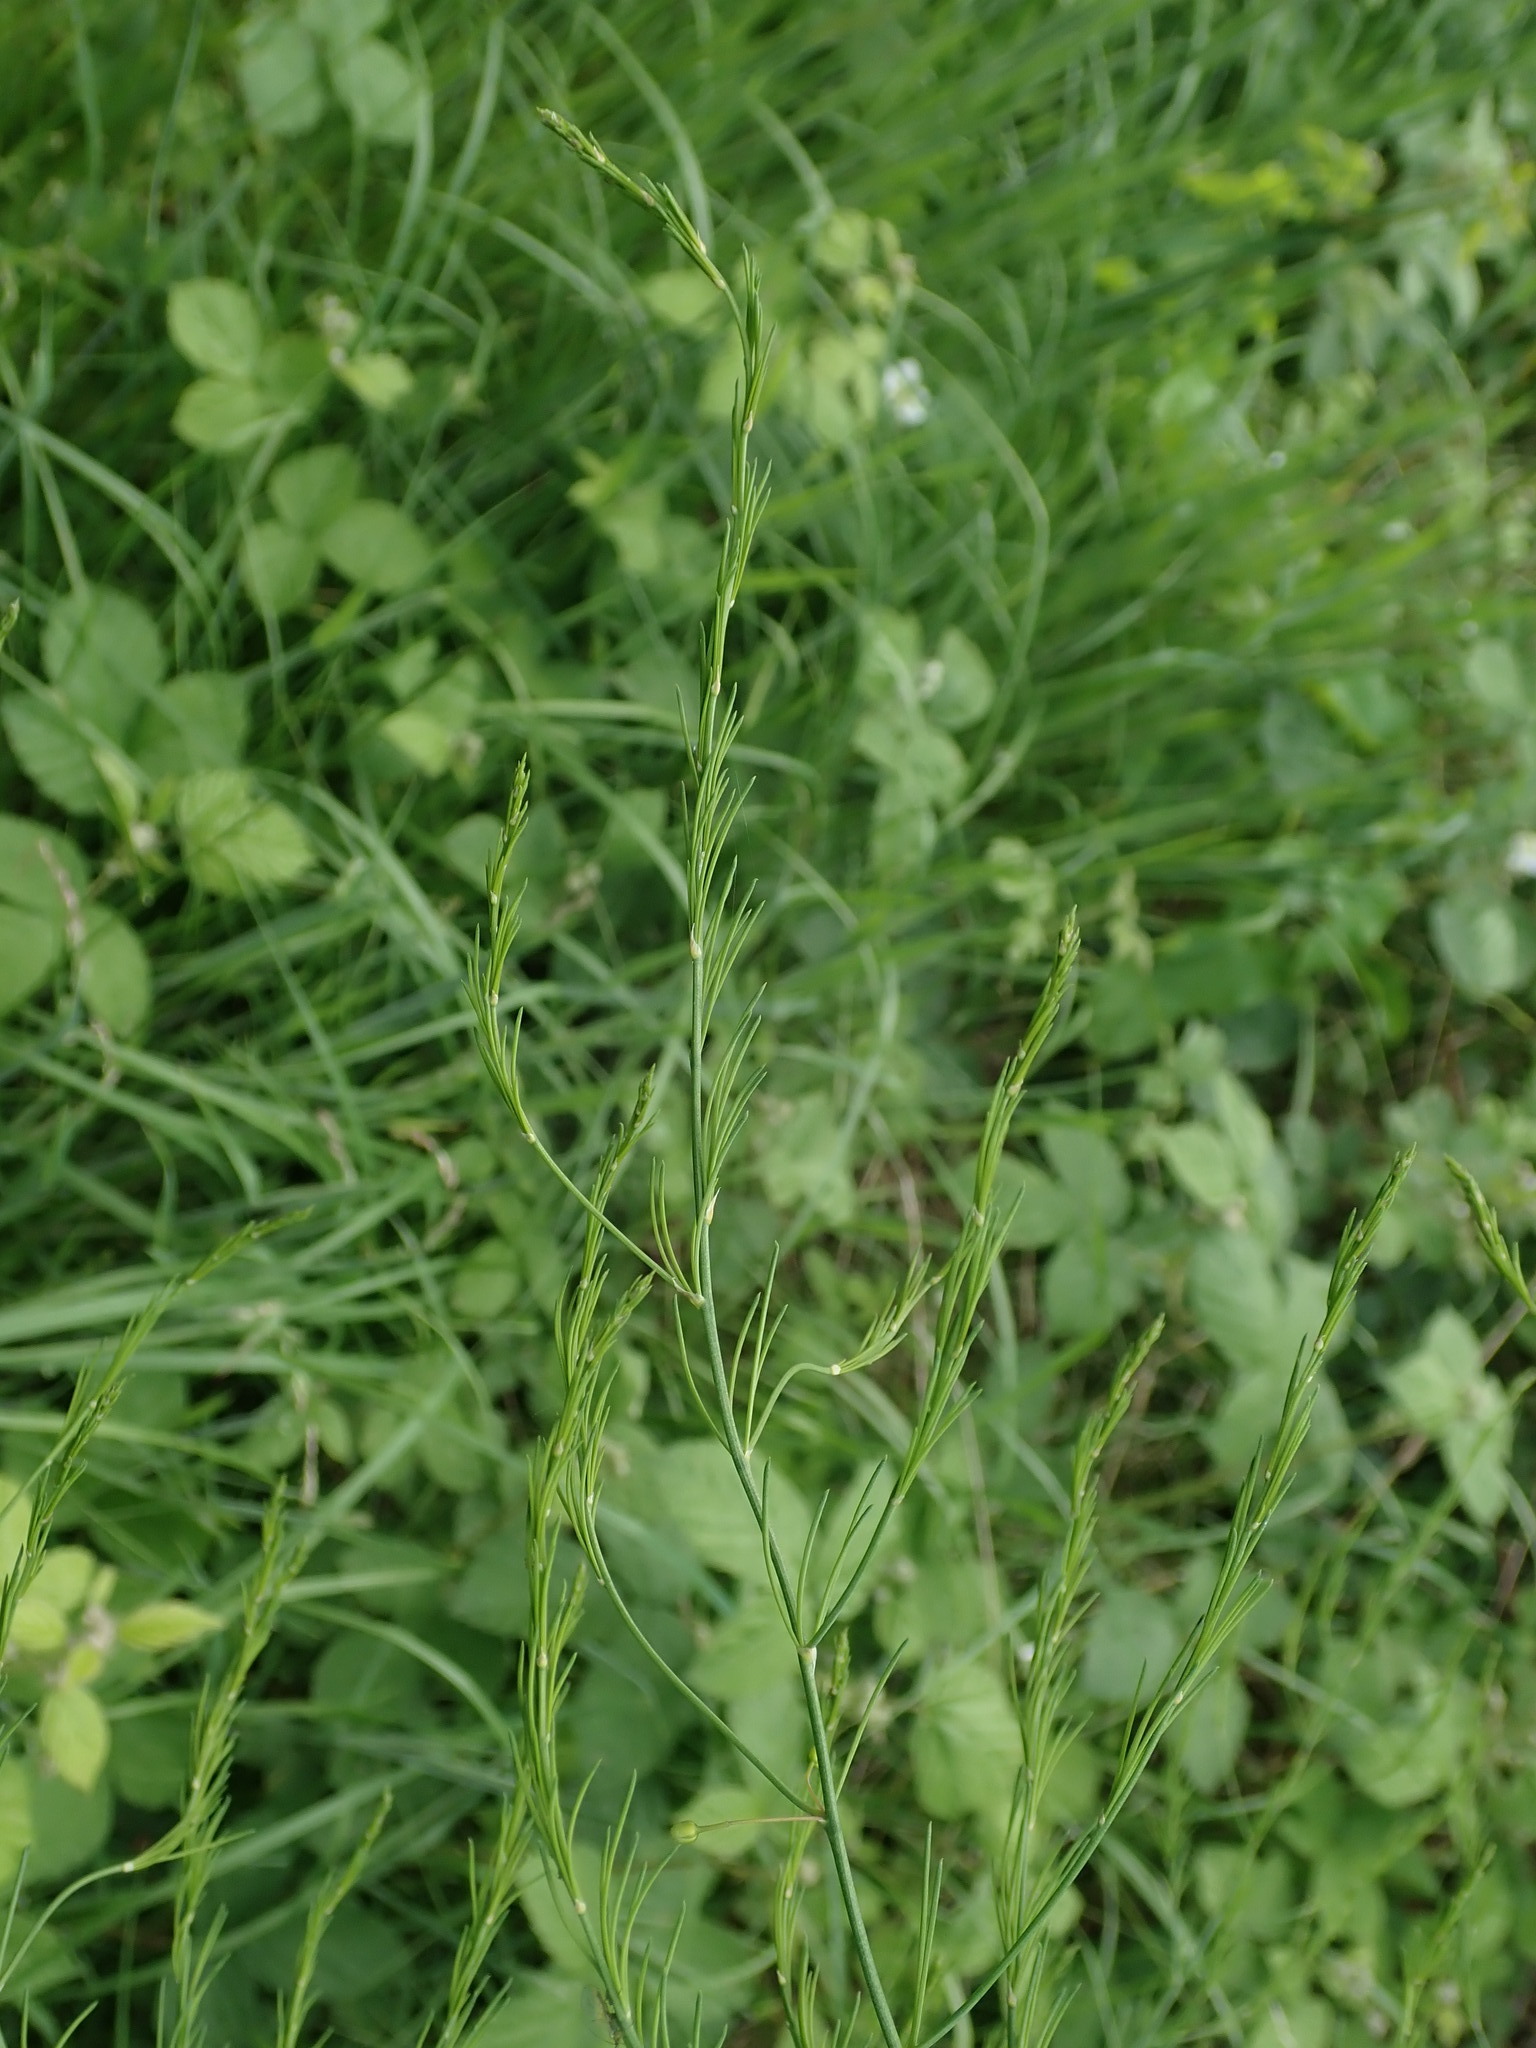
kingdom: Plantae
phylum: Tracheophyta
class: Liliopsida
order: Asparagales
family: Asparagaceae
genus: Asparagus
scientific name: Asparagus officinalis
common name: Garden asparagus
